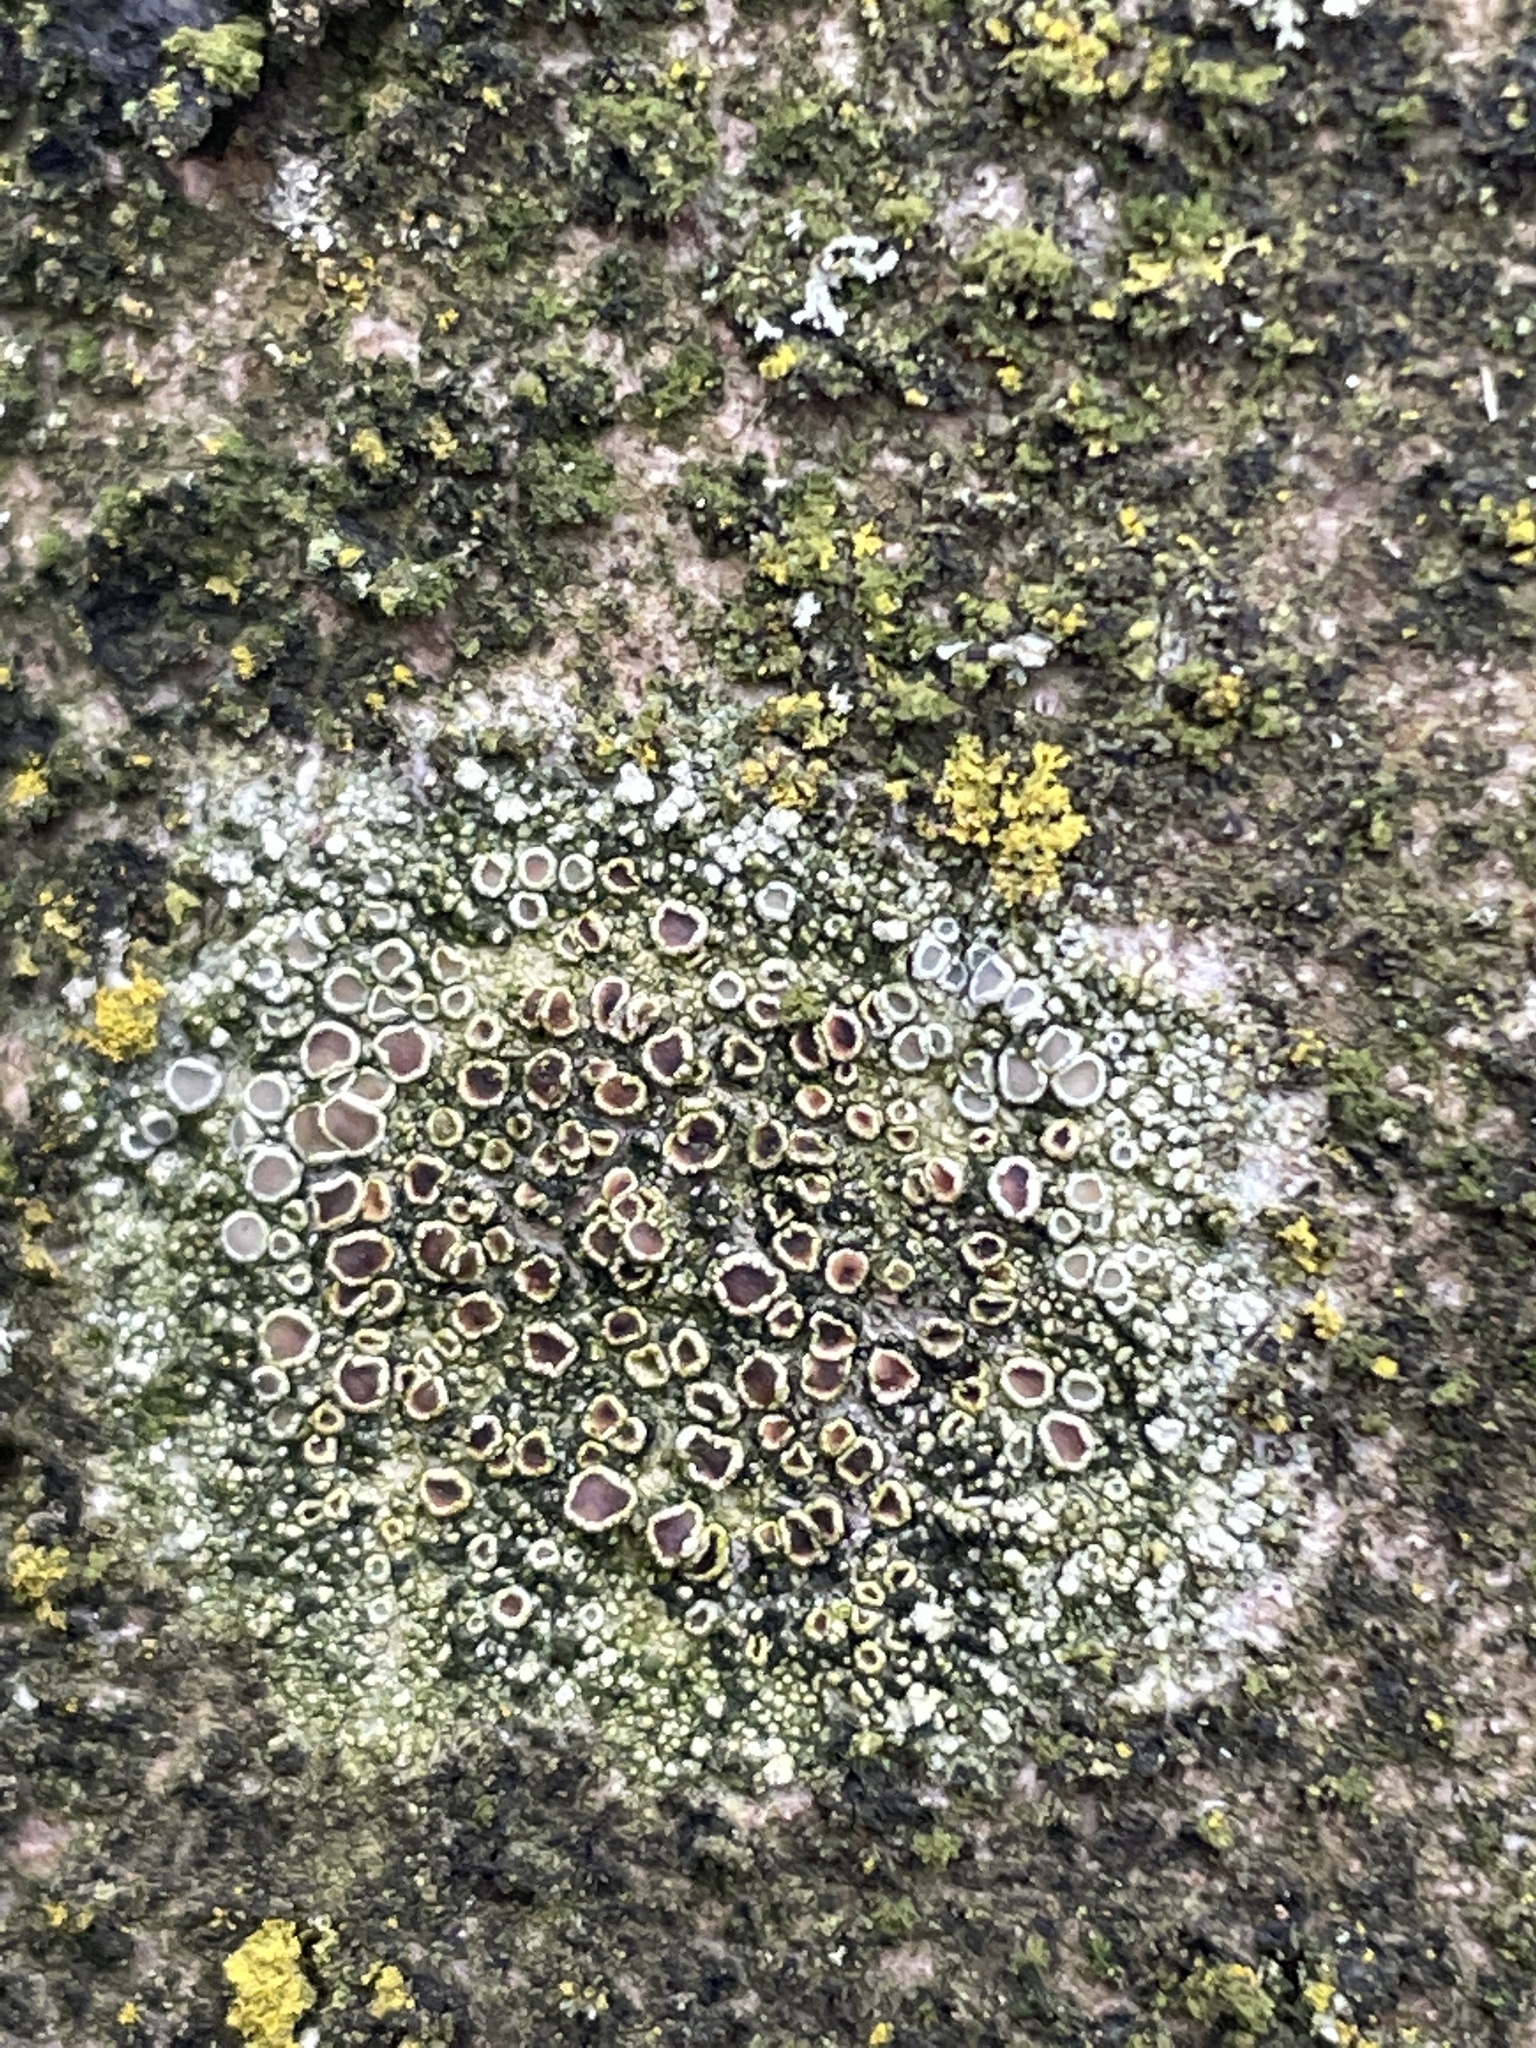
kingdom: Fungi
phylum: Ascomycota
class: Lecanoromycetes
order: Lecanorales
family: Lecanoraceae
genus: Lecanora
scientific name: Lecanora chlarotera
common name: Brown rim-lichen
